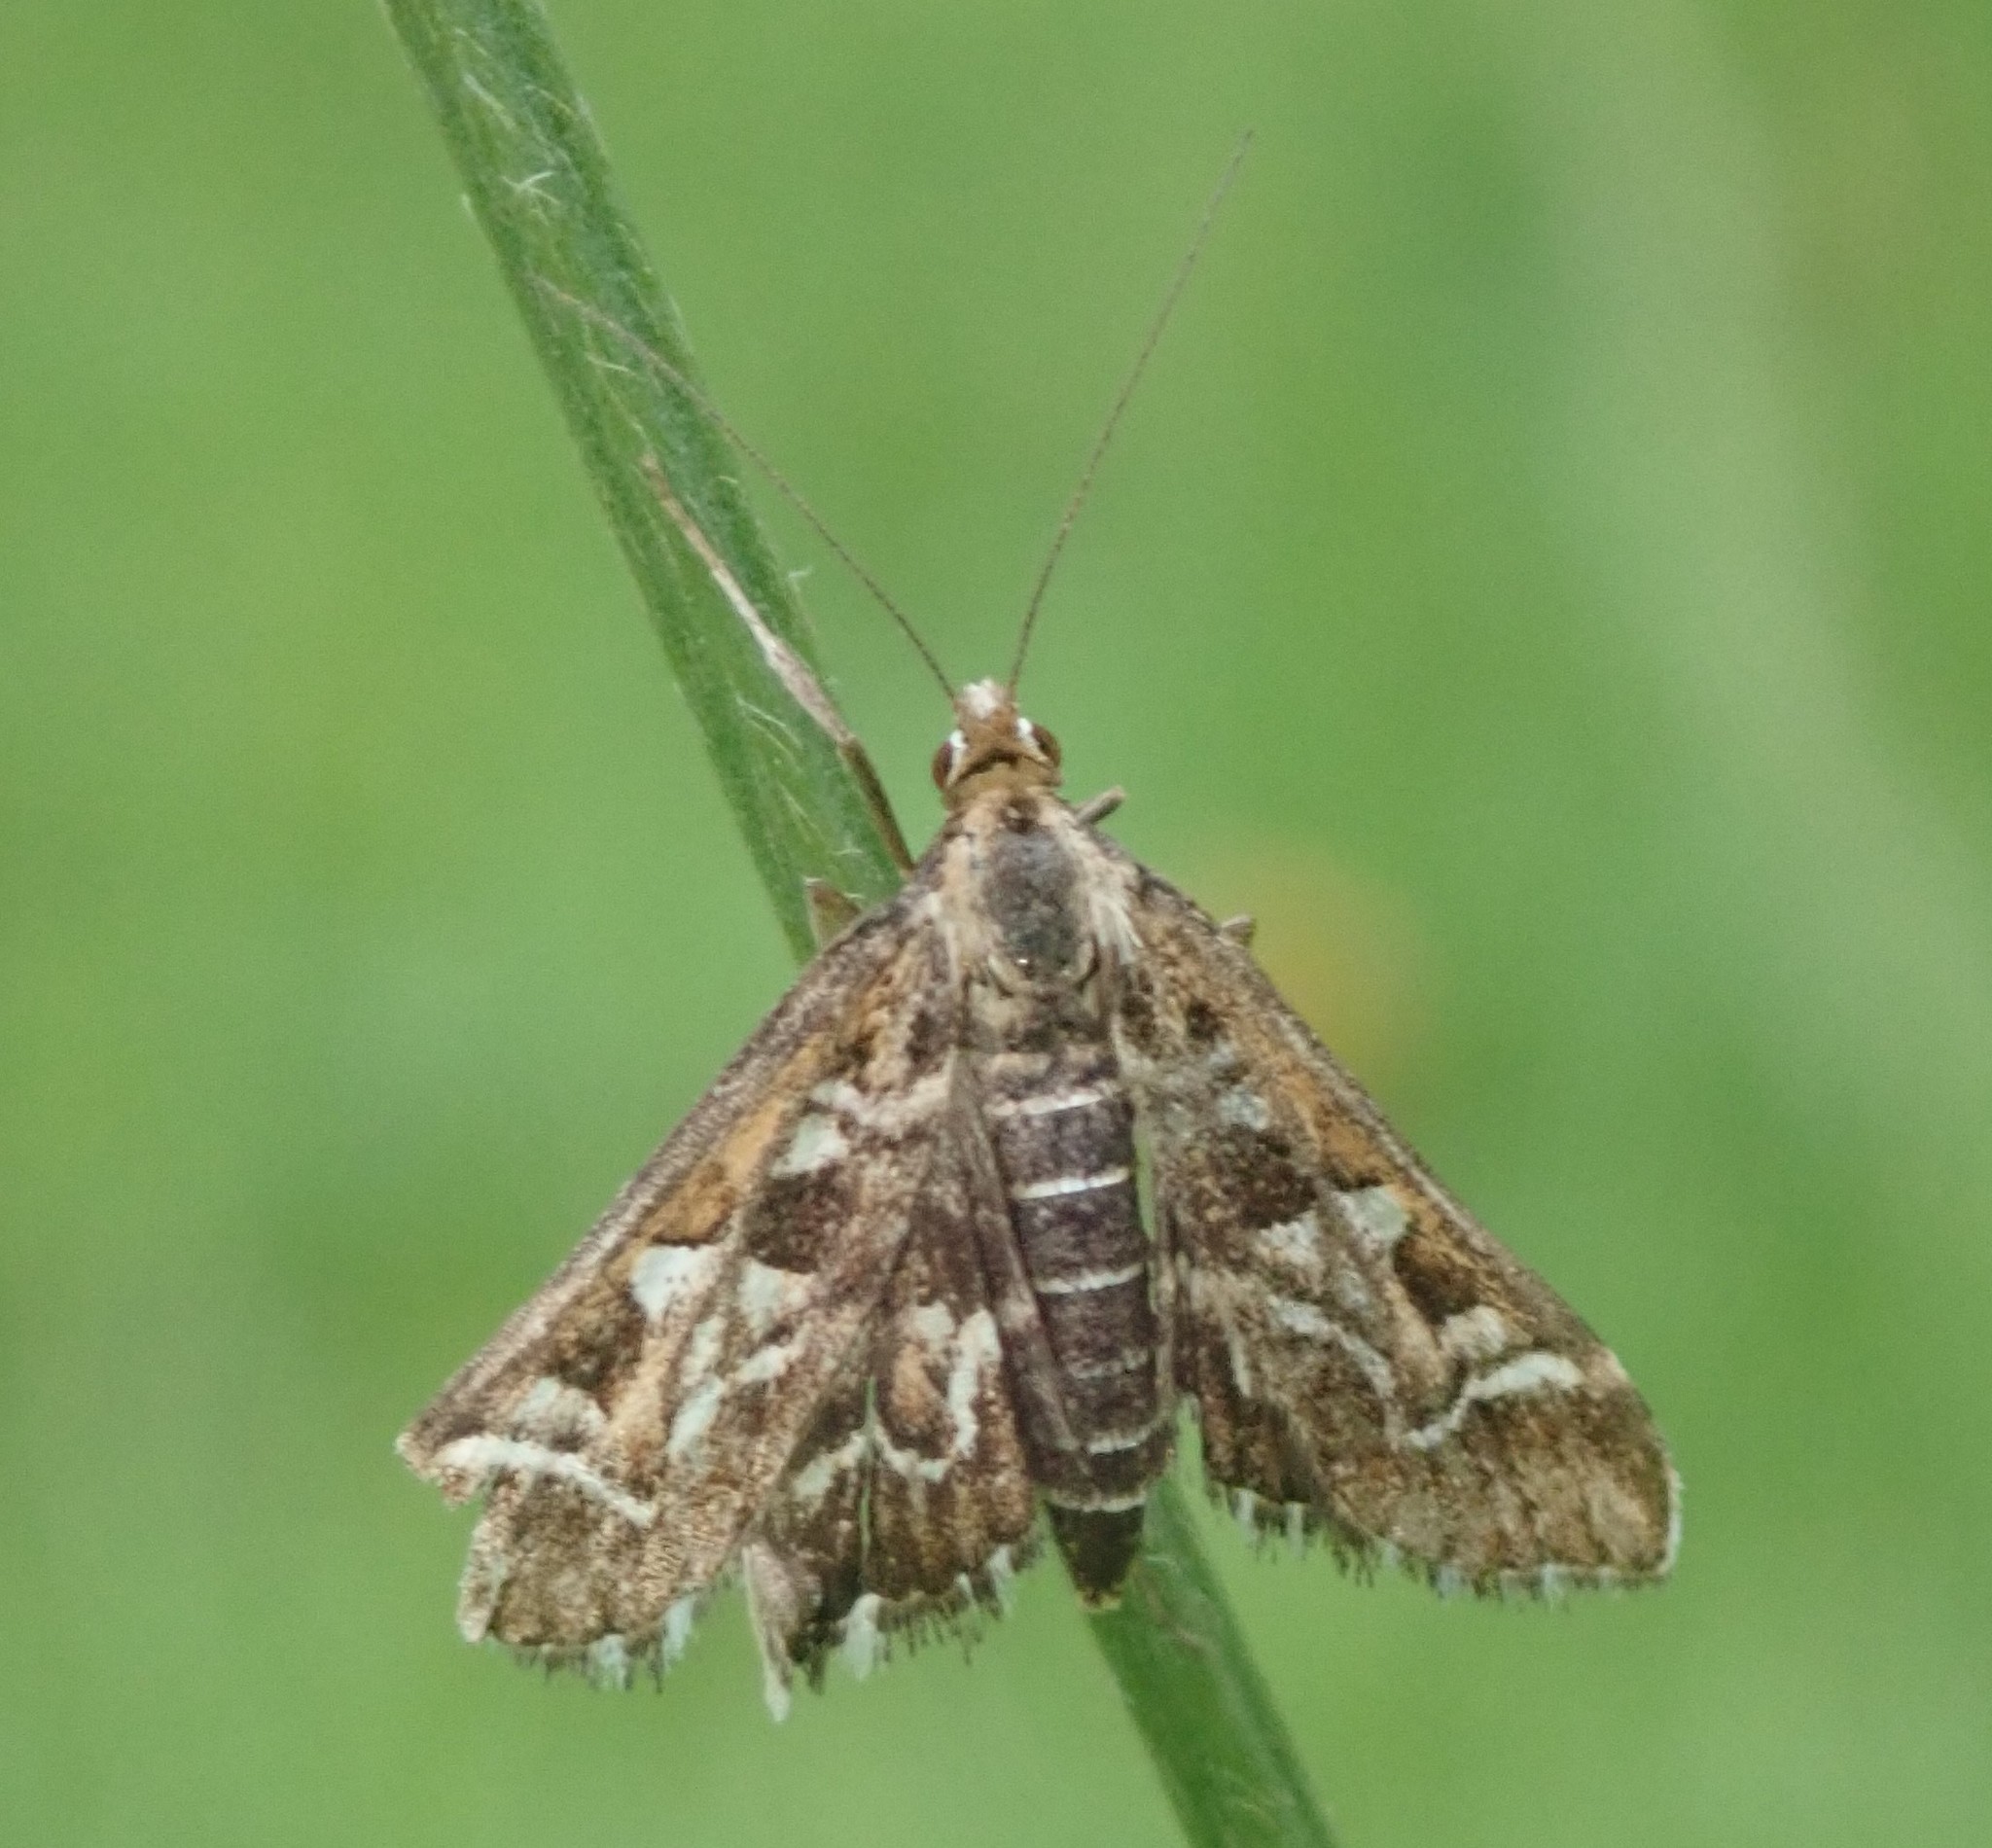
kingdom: Animalia
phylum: Arthropoda
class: Insecta
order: Lepidoptera
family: Crambidae
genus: Diasemia
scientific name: Diasemia reticularis
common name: Lettered china-mark
